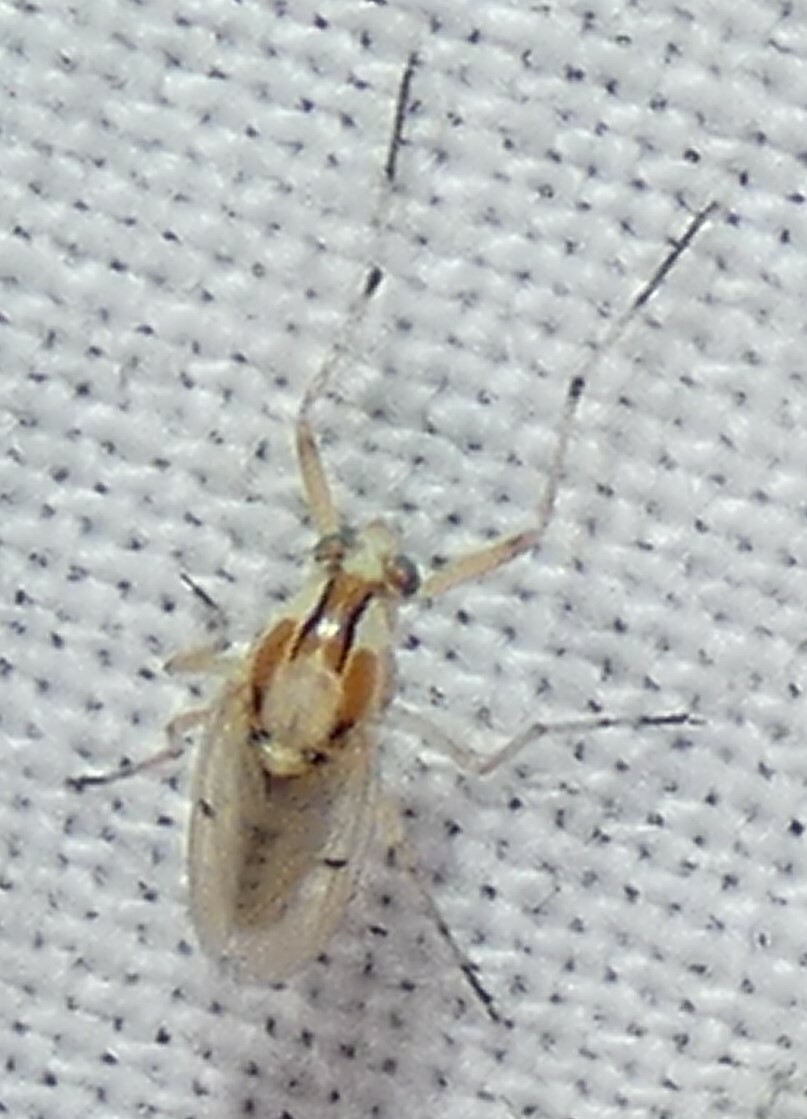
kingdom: Animalia
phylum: Arthropoda
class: Insecta
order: Diptera
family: Chironomidae
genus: Coelotanypus
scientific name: Coelotanypus concinnus
